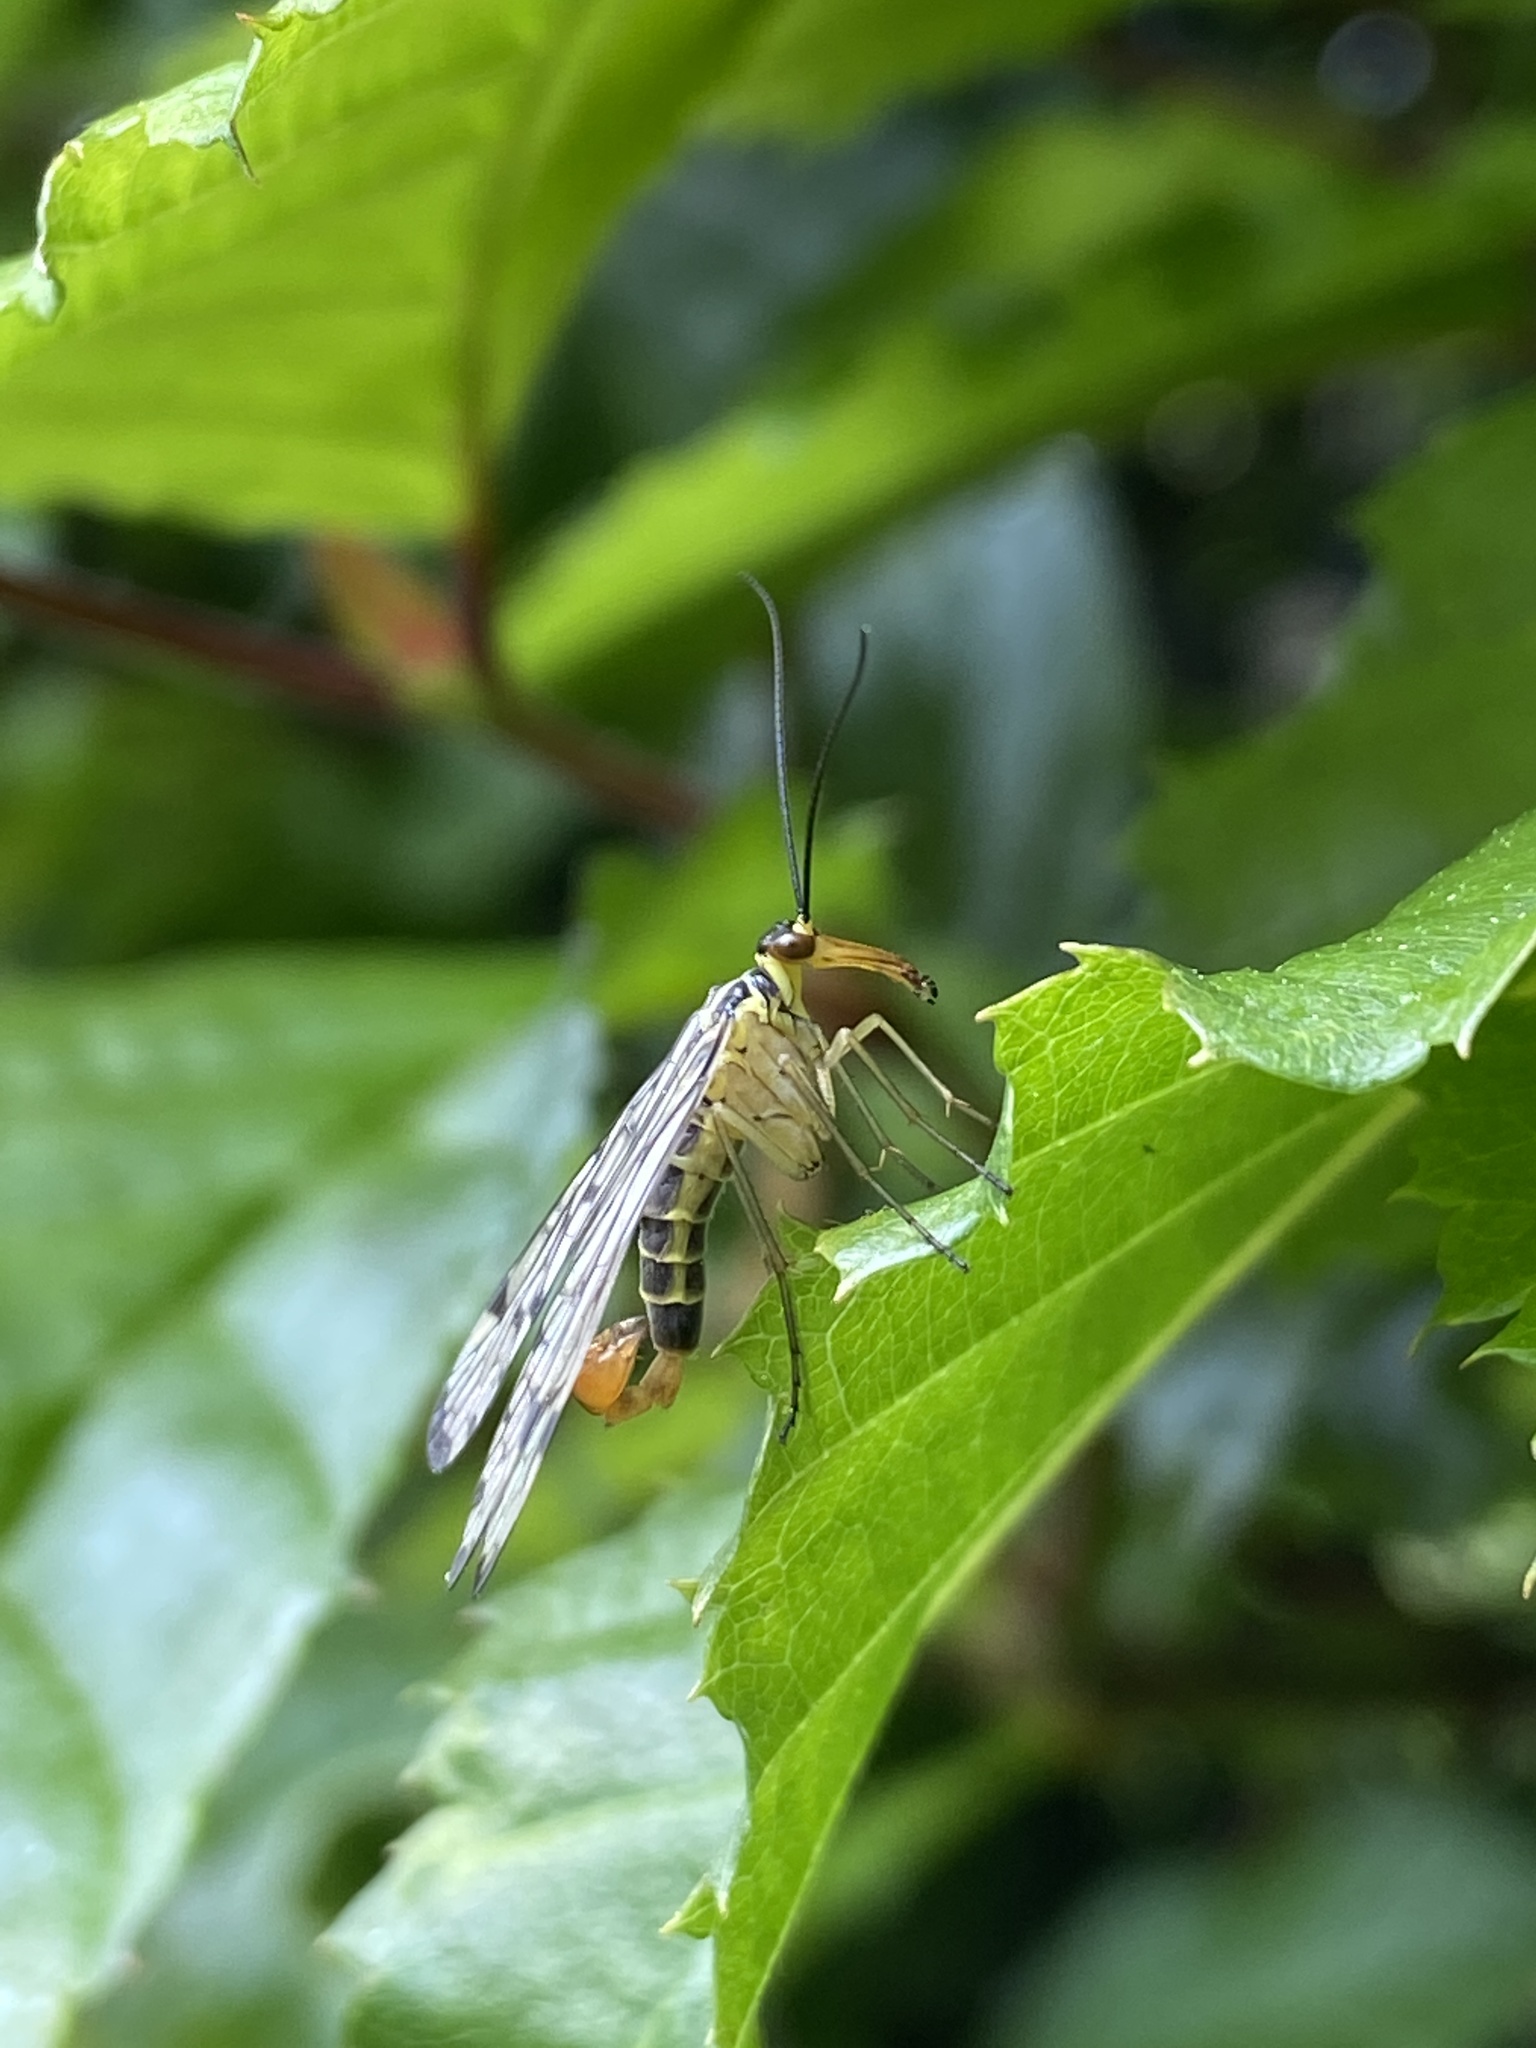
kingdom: Animalia
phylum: Arthropoda
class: Insecta
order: Mecoptera
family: Panorpidae
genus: Panorpa
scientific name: Panorpa germanica
